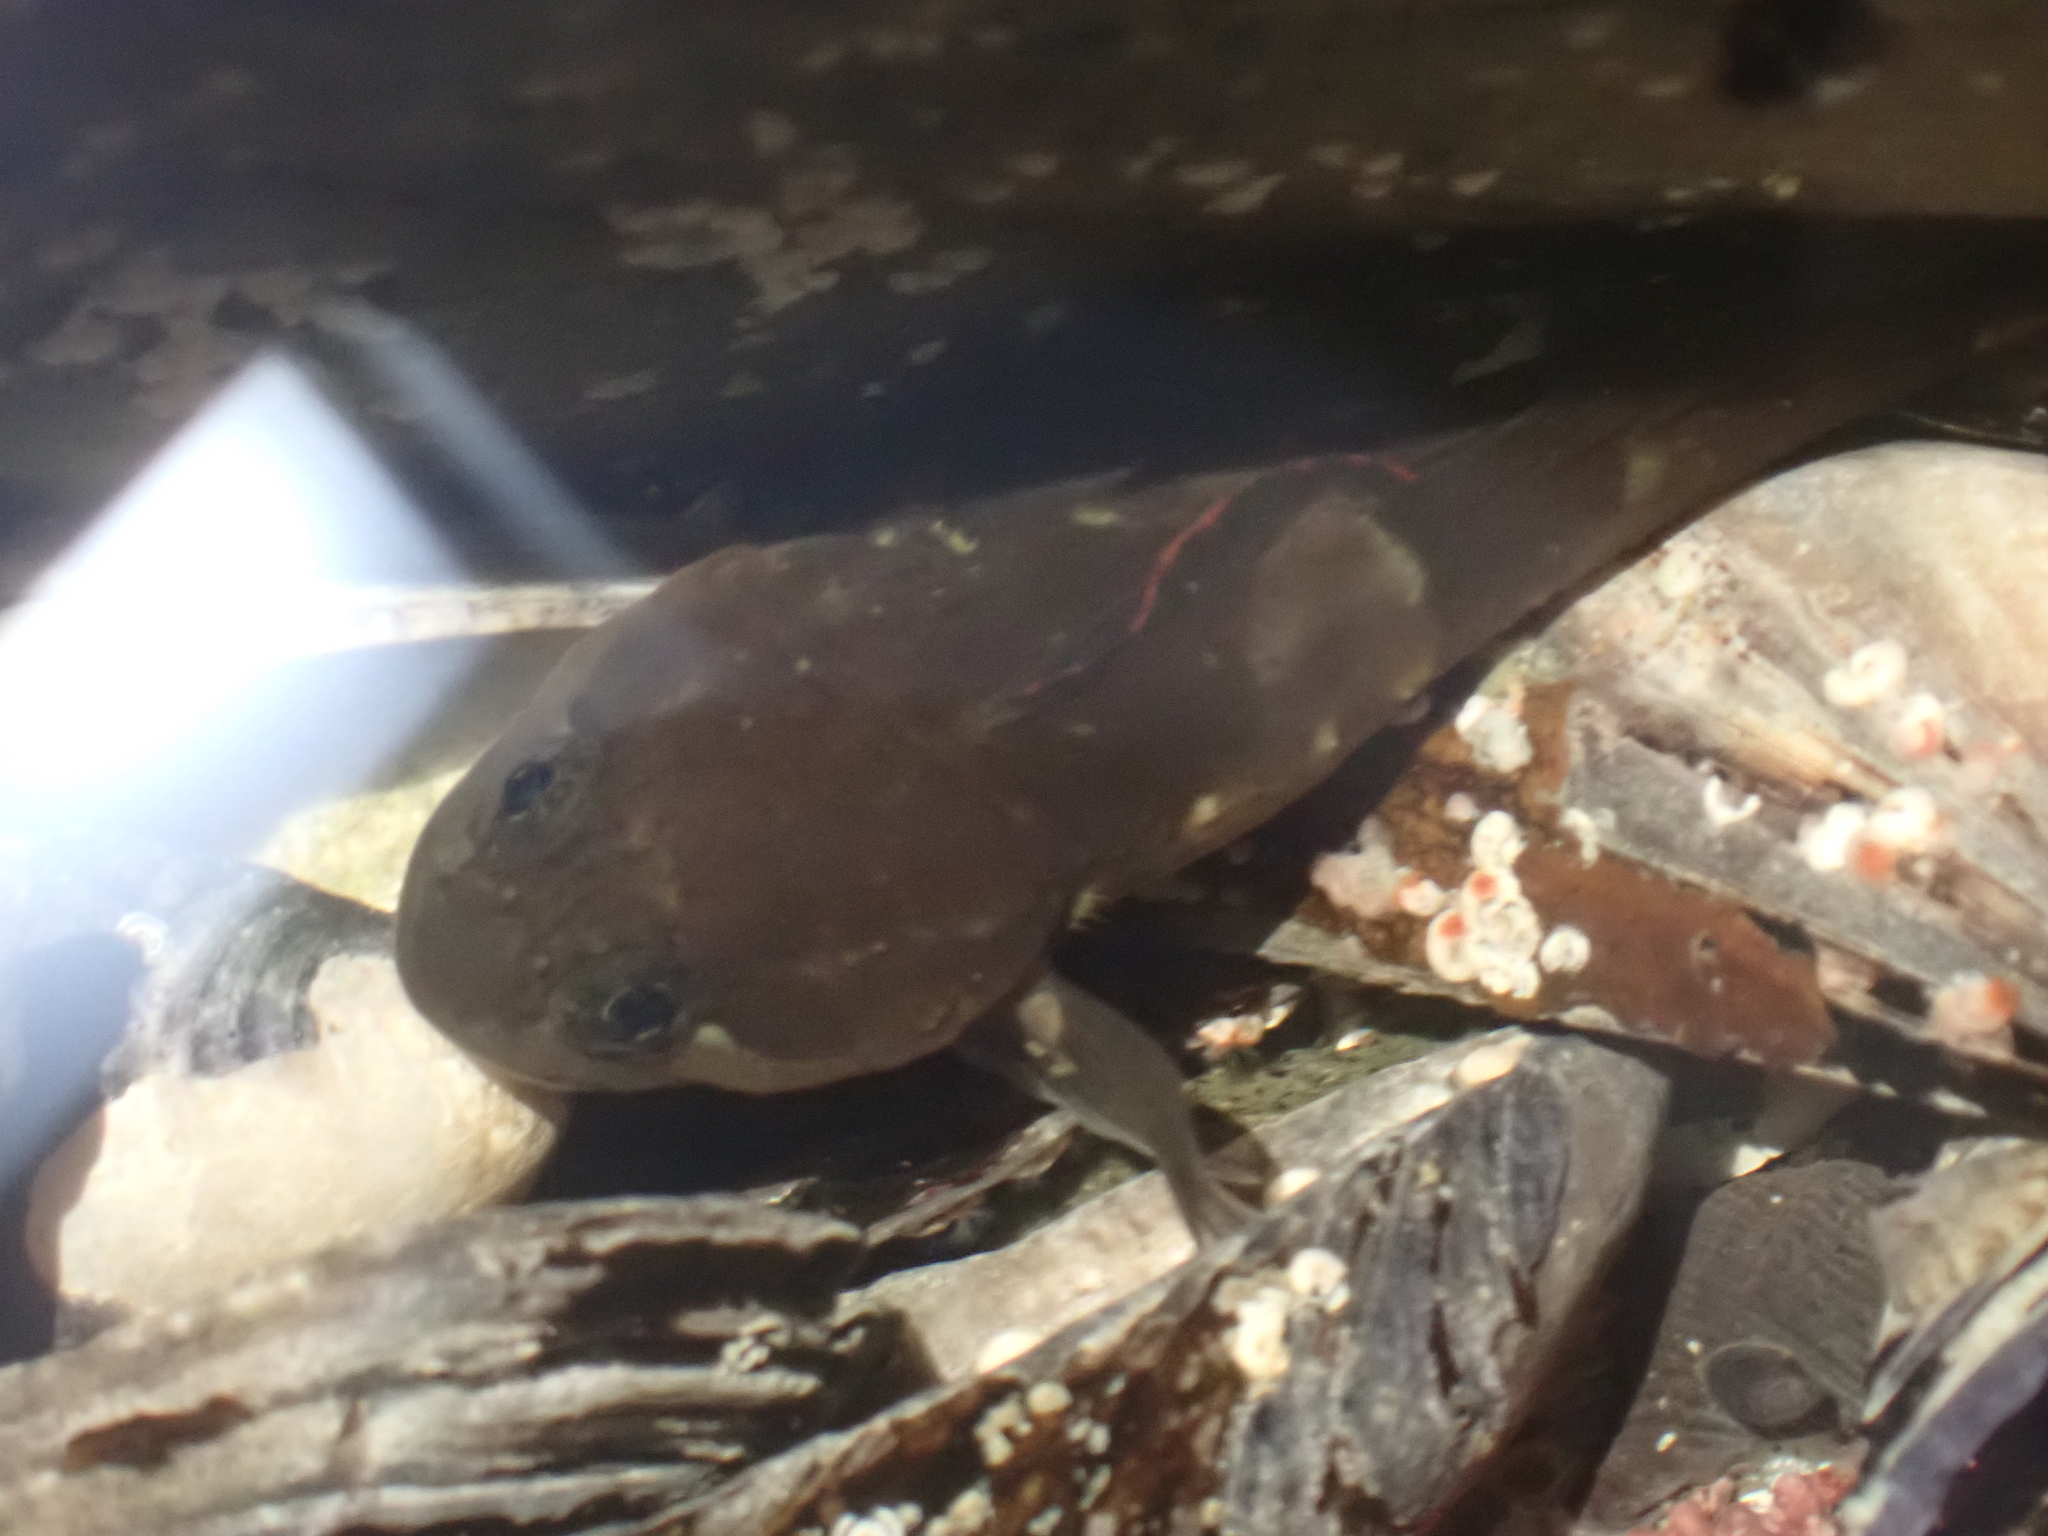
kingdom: Animalia
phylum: Chordata
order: Scorpaeniformes
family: Cottidae
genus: Ascelichthys
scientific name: Ascelichthys rhodorus
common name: Rosylip sculpin
